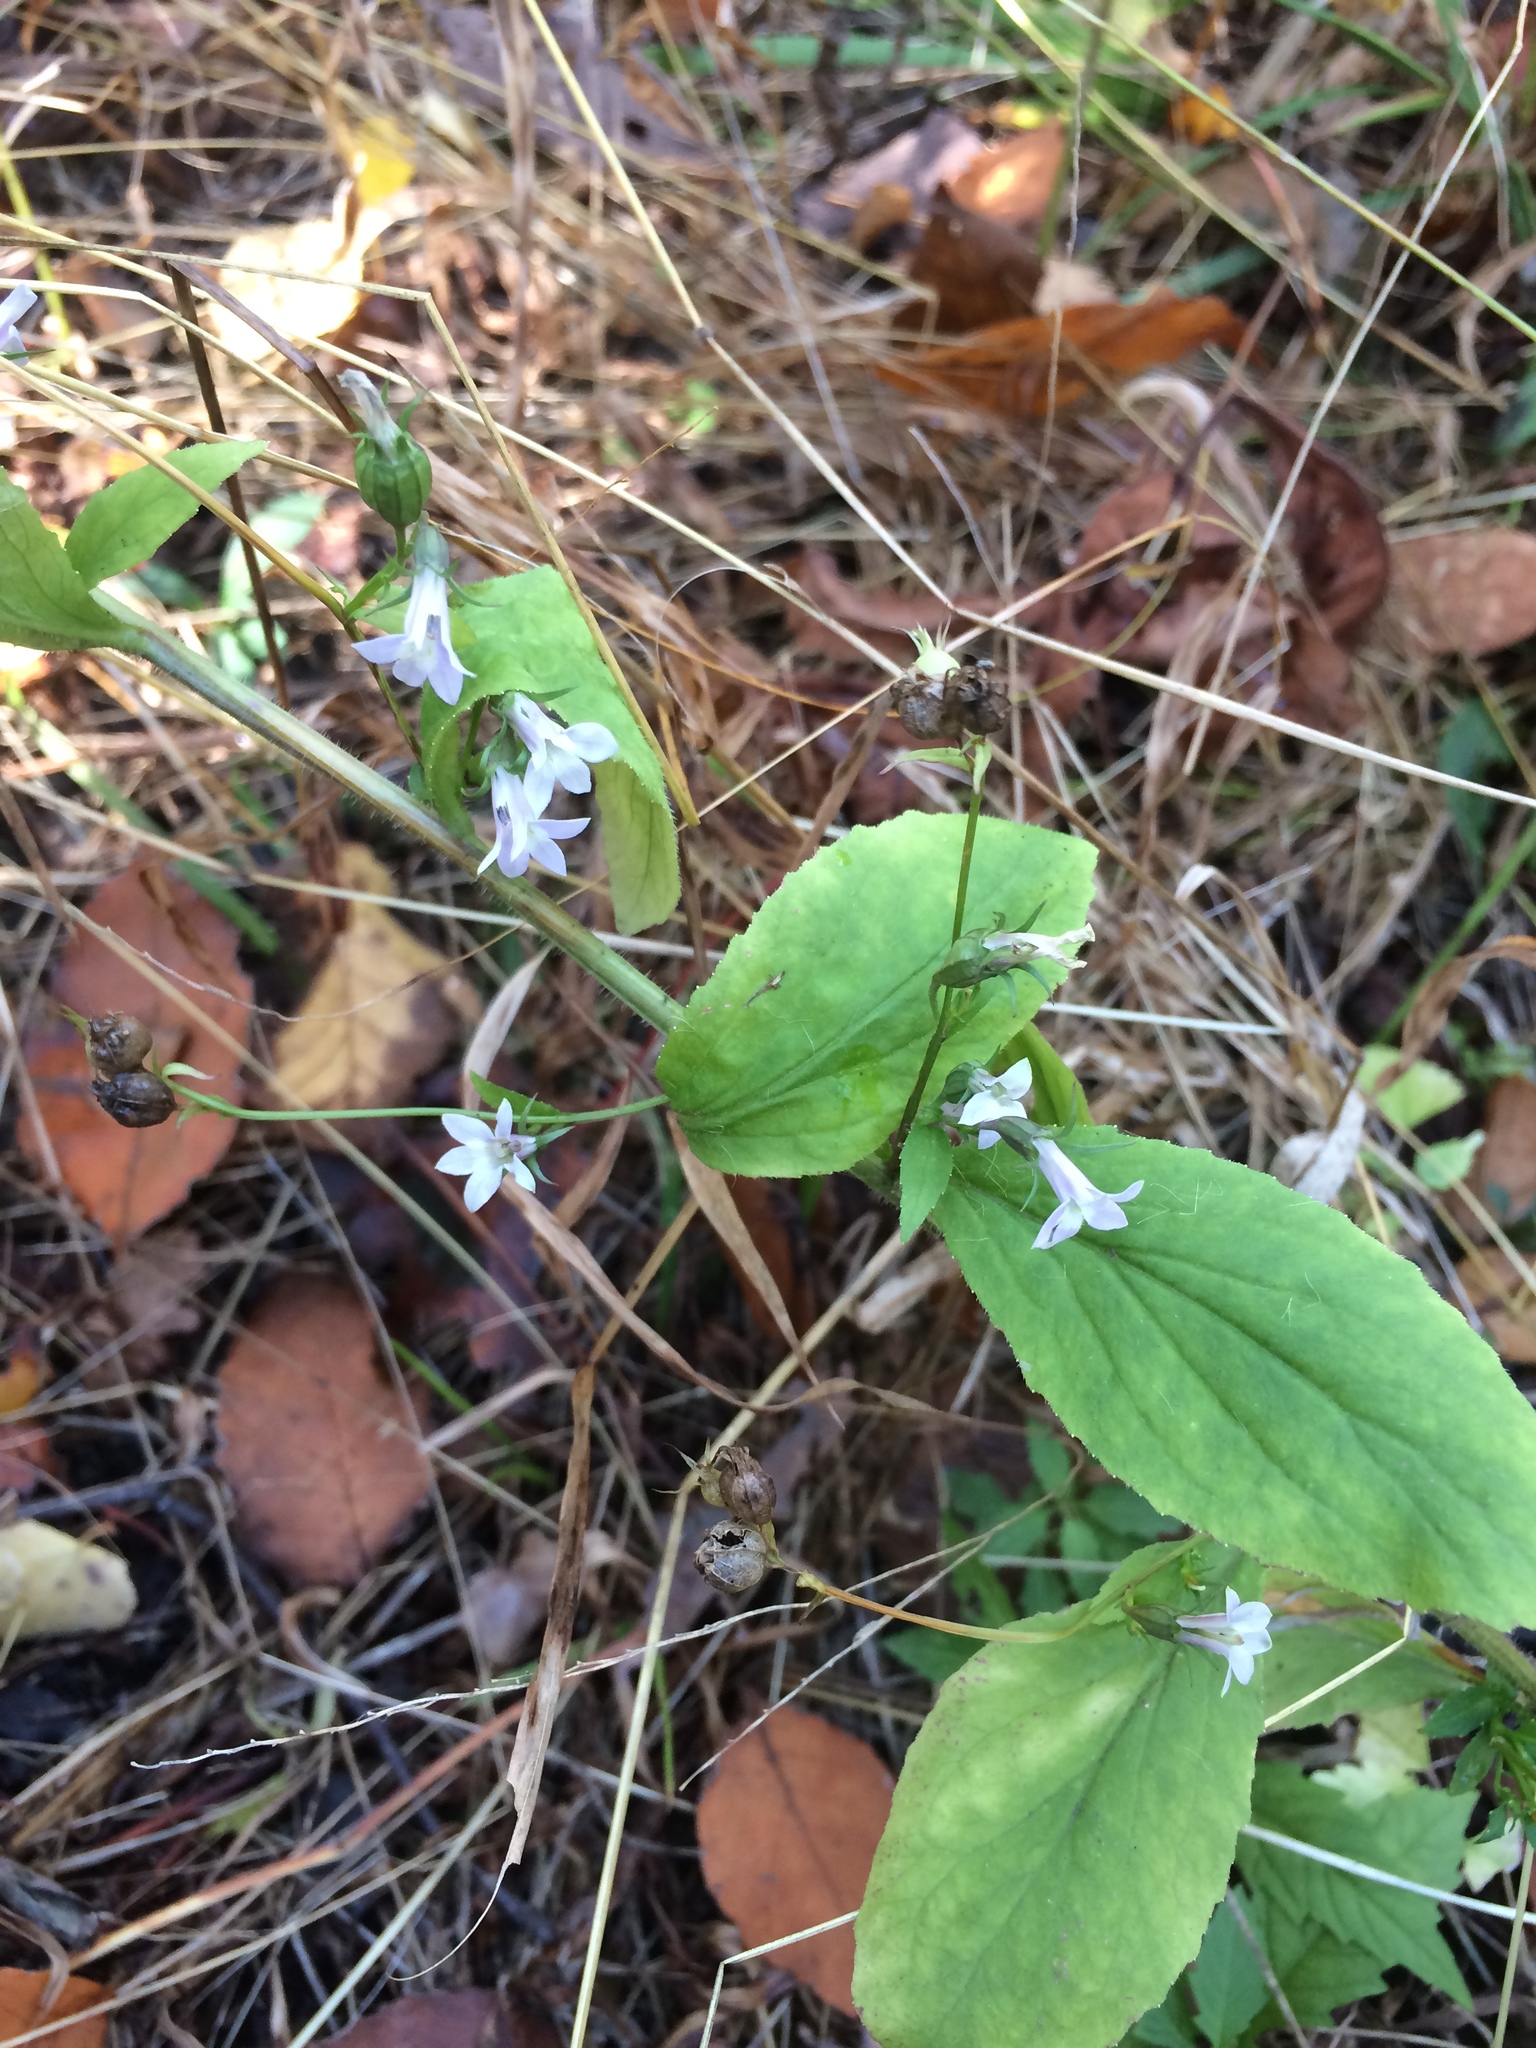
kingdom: Plantae
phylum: Tracheophyta
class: Magnoliopsida
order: Asterales
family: Campanulaceae
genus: Lobelia
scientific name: Lobelia inflata
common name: Indian tobacco
